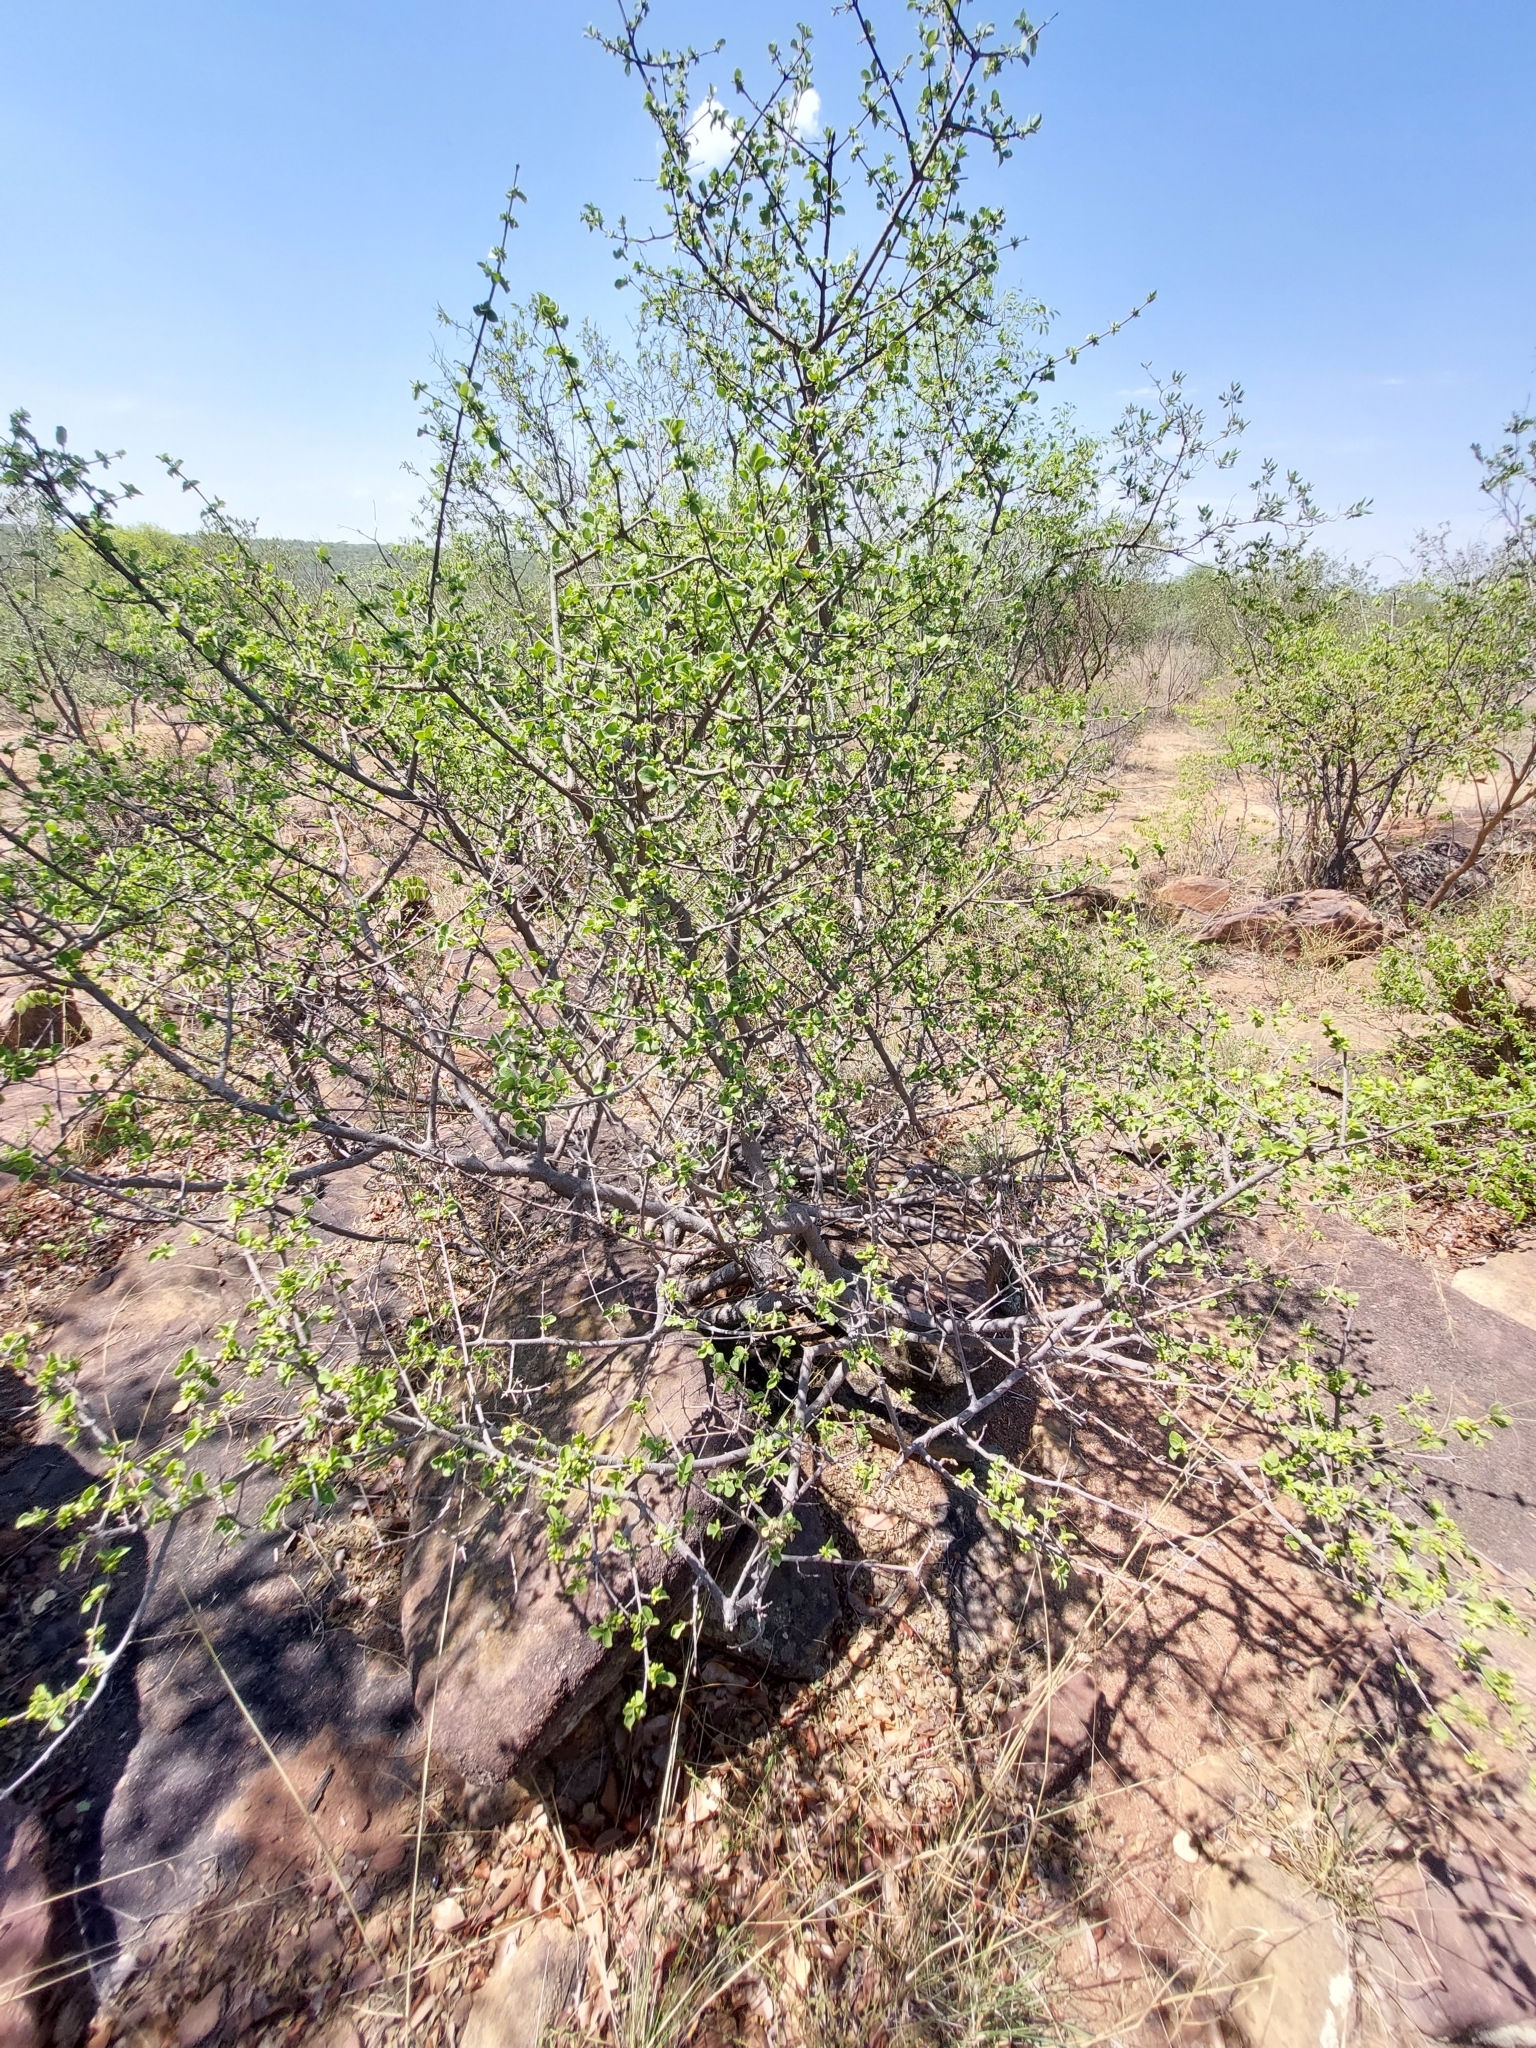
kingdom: Plantae
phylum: Tracheophyta
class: Magnoliopsida
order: Gentianales
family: Rubiaceae
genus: Vangueria
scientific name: Vangueria parvifolia
